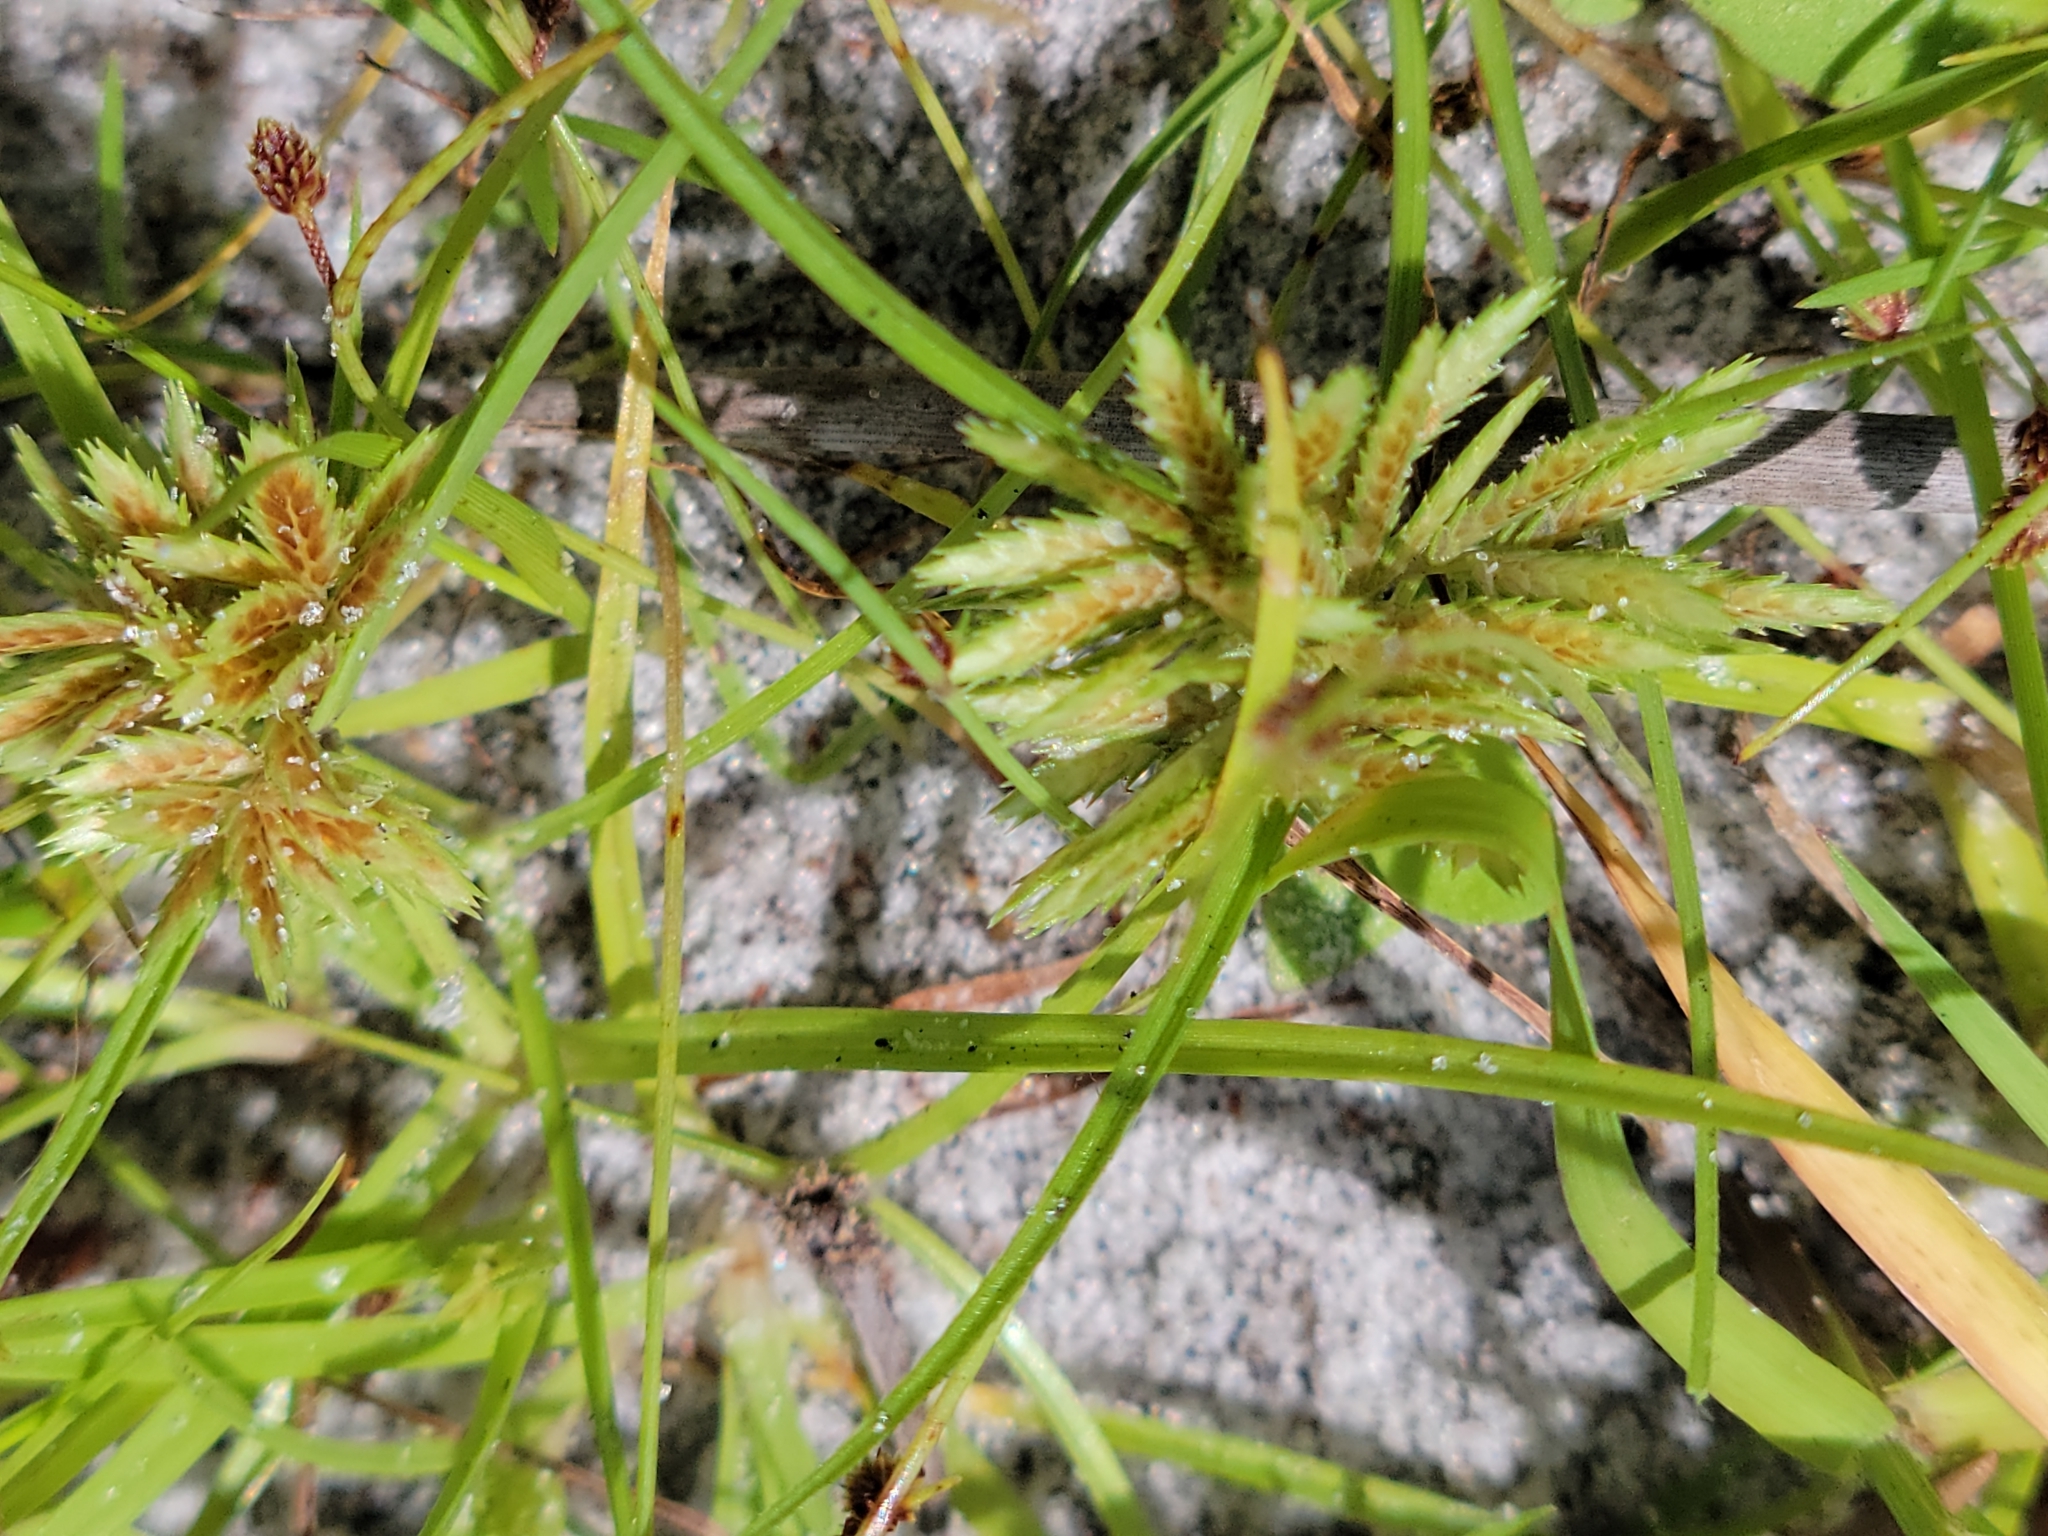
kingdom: Plantae
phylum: Tracheophyta
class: Liliopsida
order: Poales
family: Cyperaceae
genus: Cyperus
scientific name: Cyperus pumilus
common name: Low flatsedge
